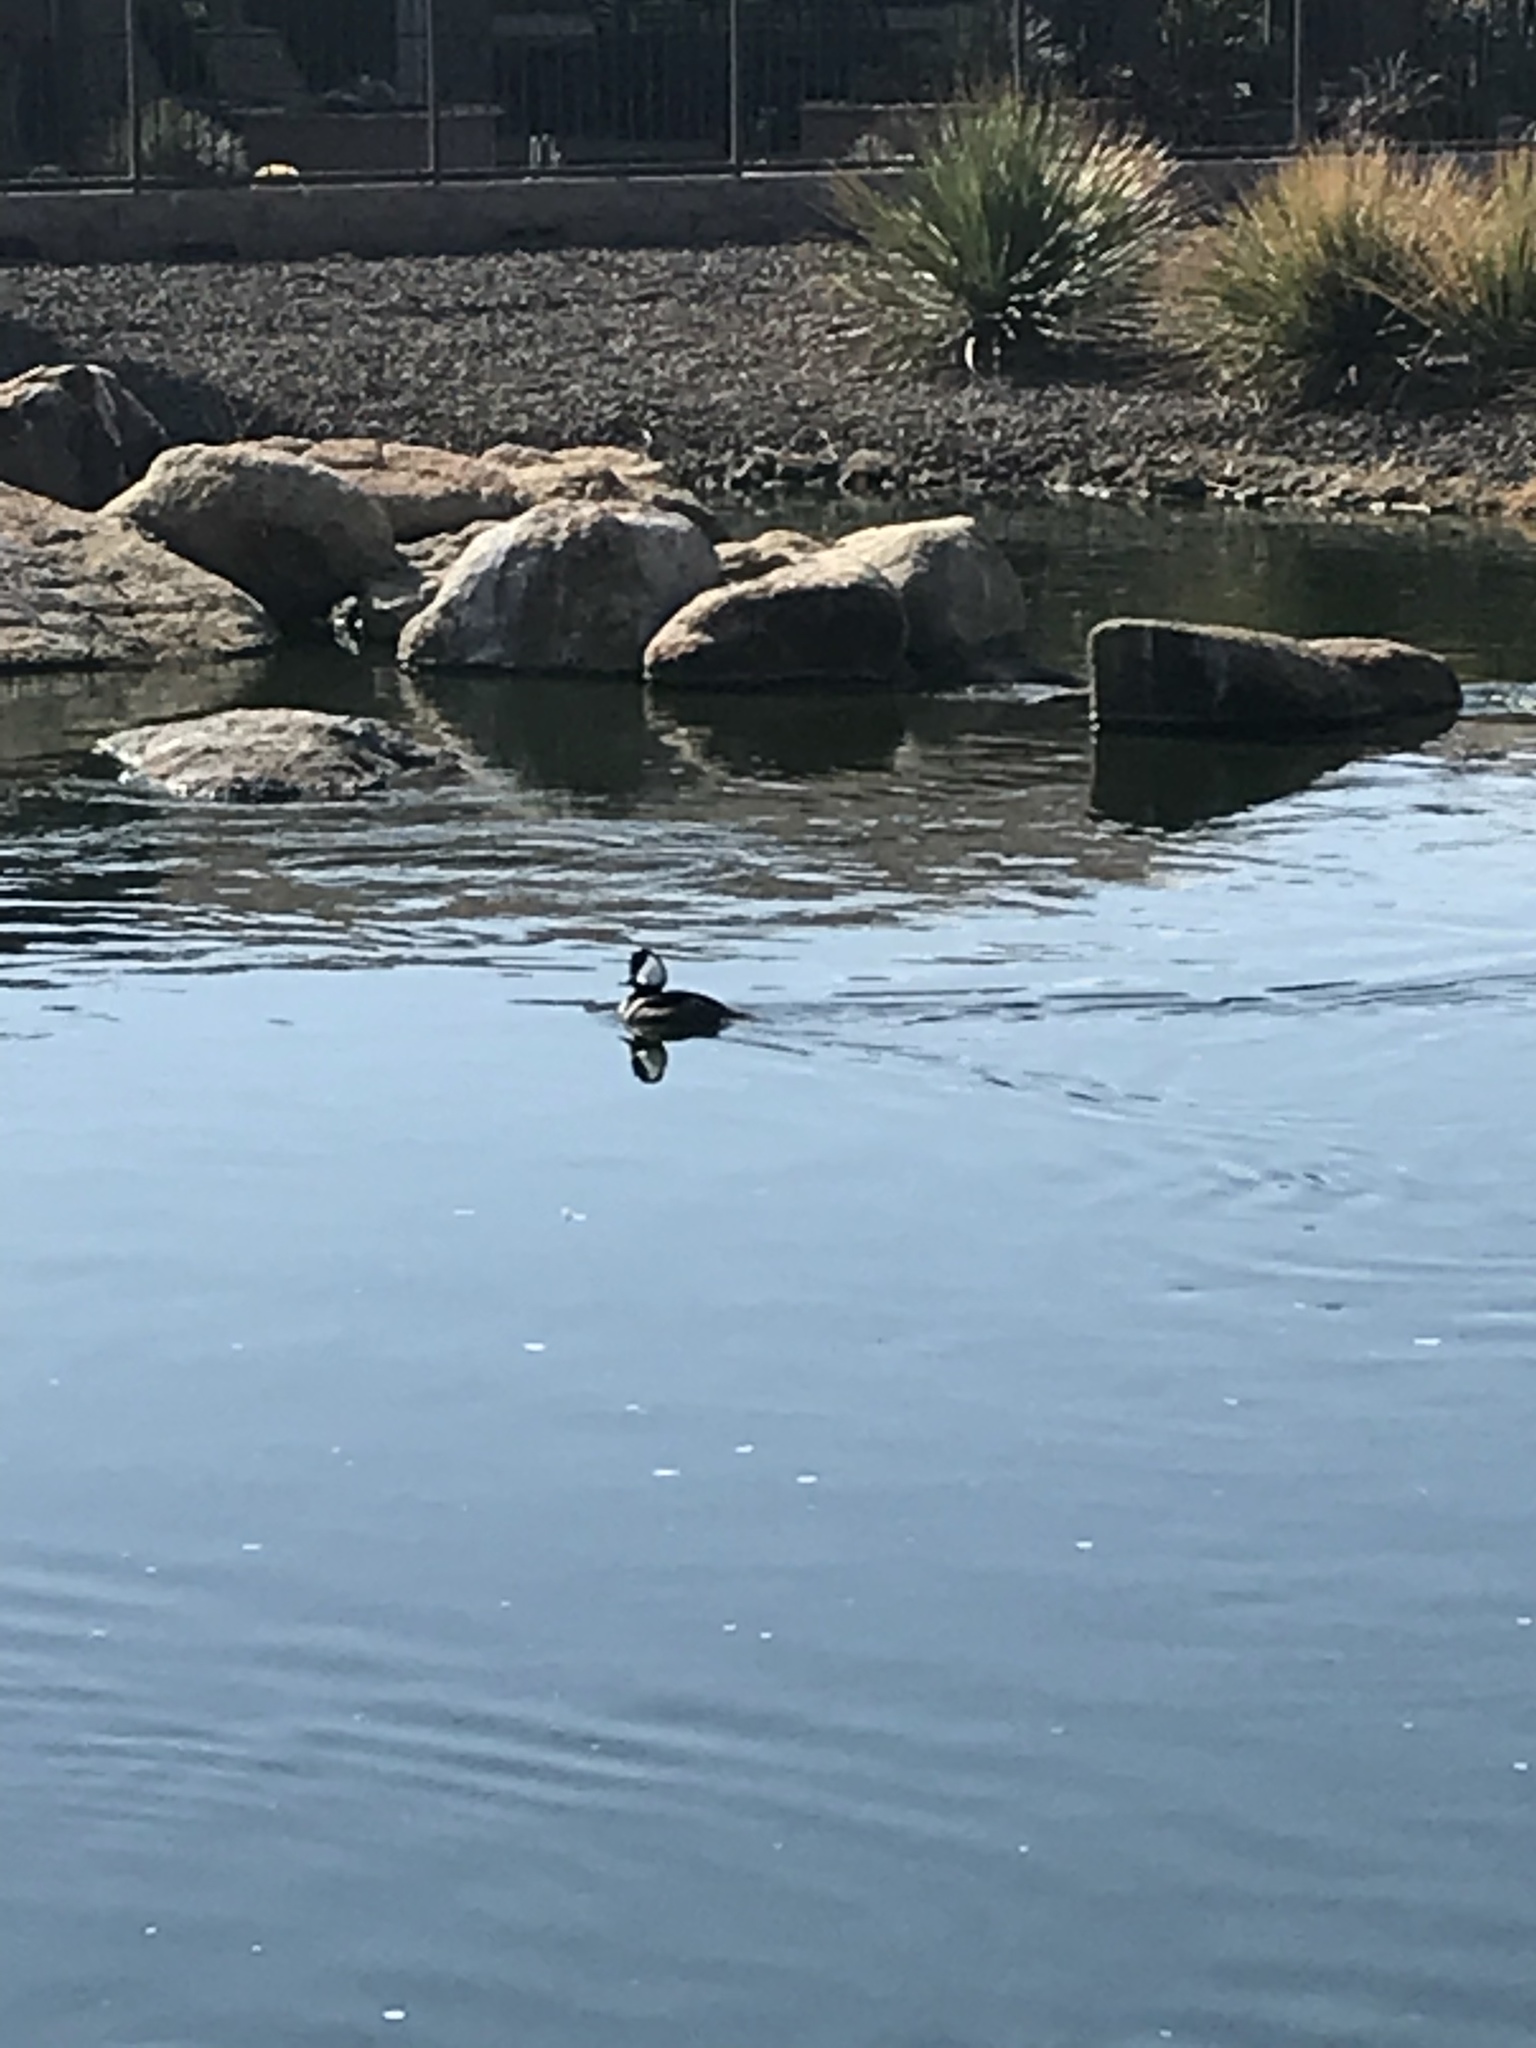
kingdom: Animalia
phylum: Chordata
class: Aves
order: Anseriformes
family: Anatidae
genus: Lophodytes
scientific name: Lophodytes cucullatus
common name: Hooded merganser
